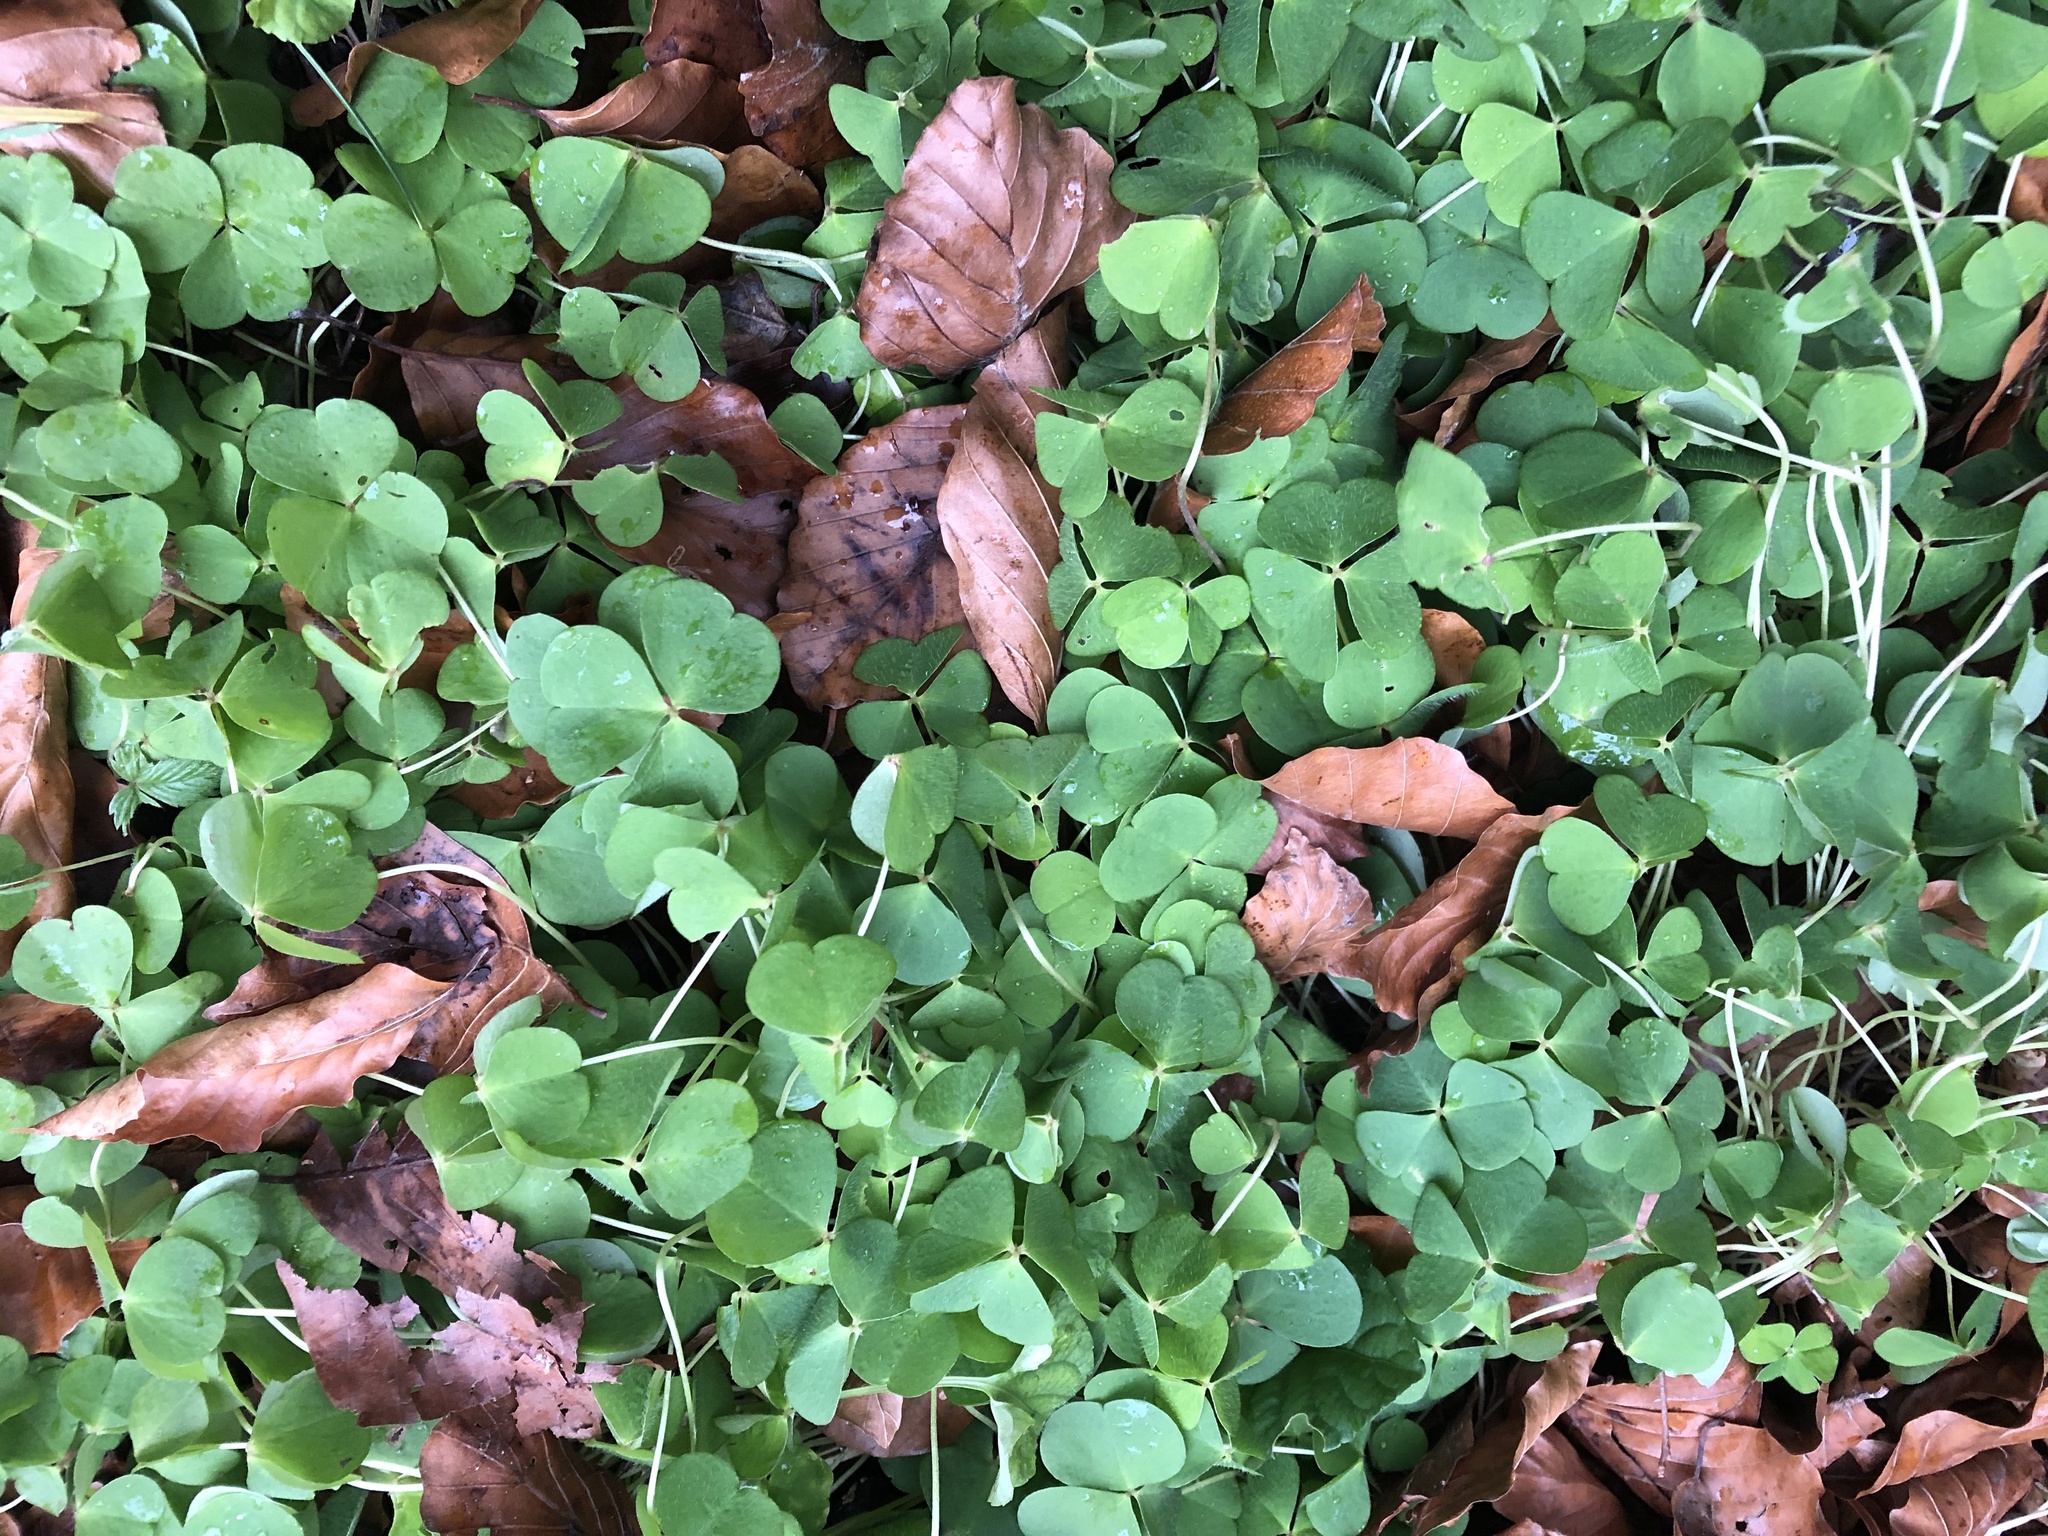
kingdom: Plantae
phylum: Tracheophyta
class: Magnoliopsida
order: Oxalidales
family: Oxalidaceae
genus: Oxalis
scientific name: Oxalis acetosella
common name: Wood-sorrel
